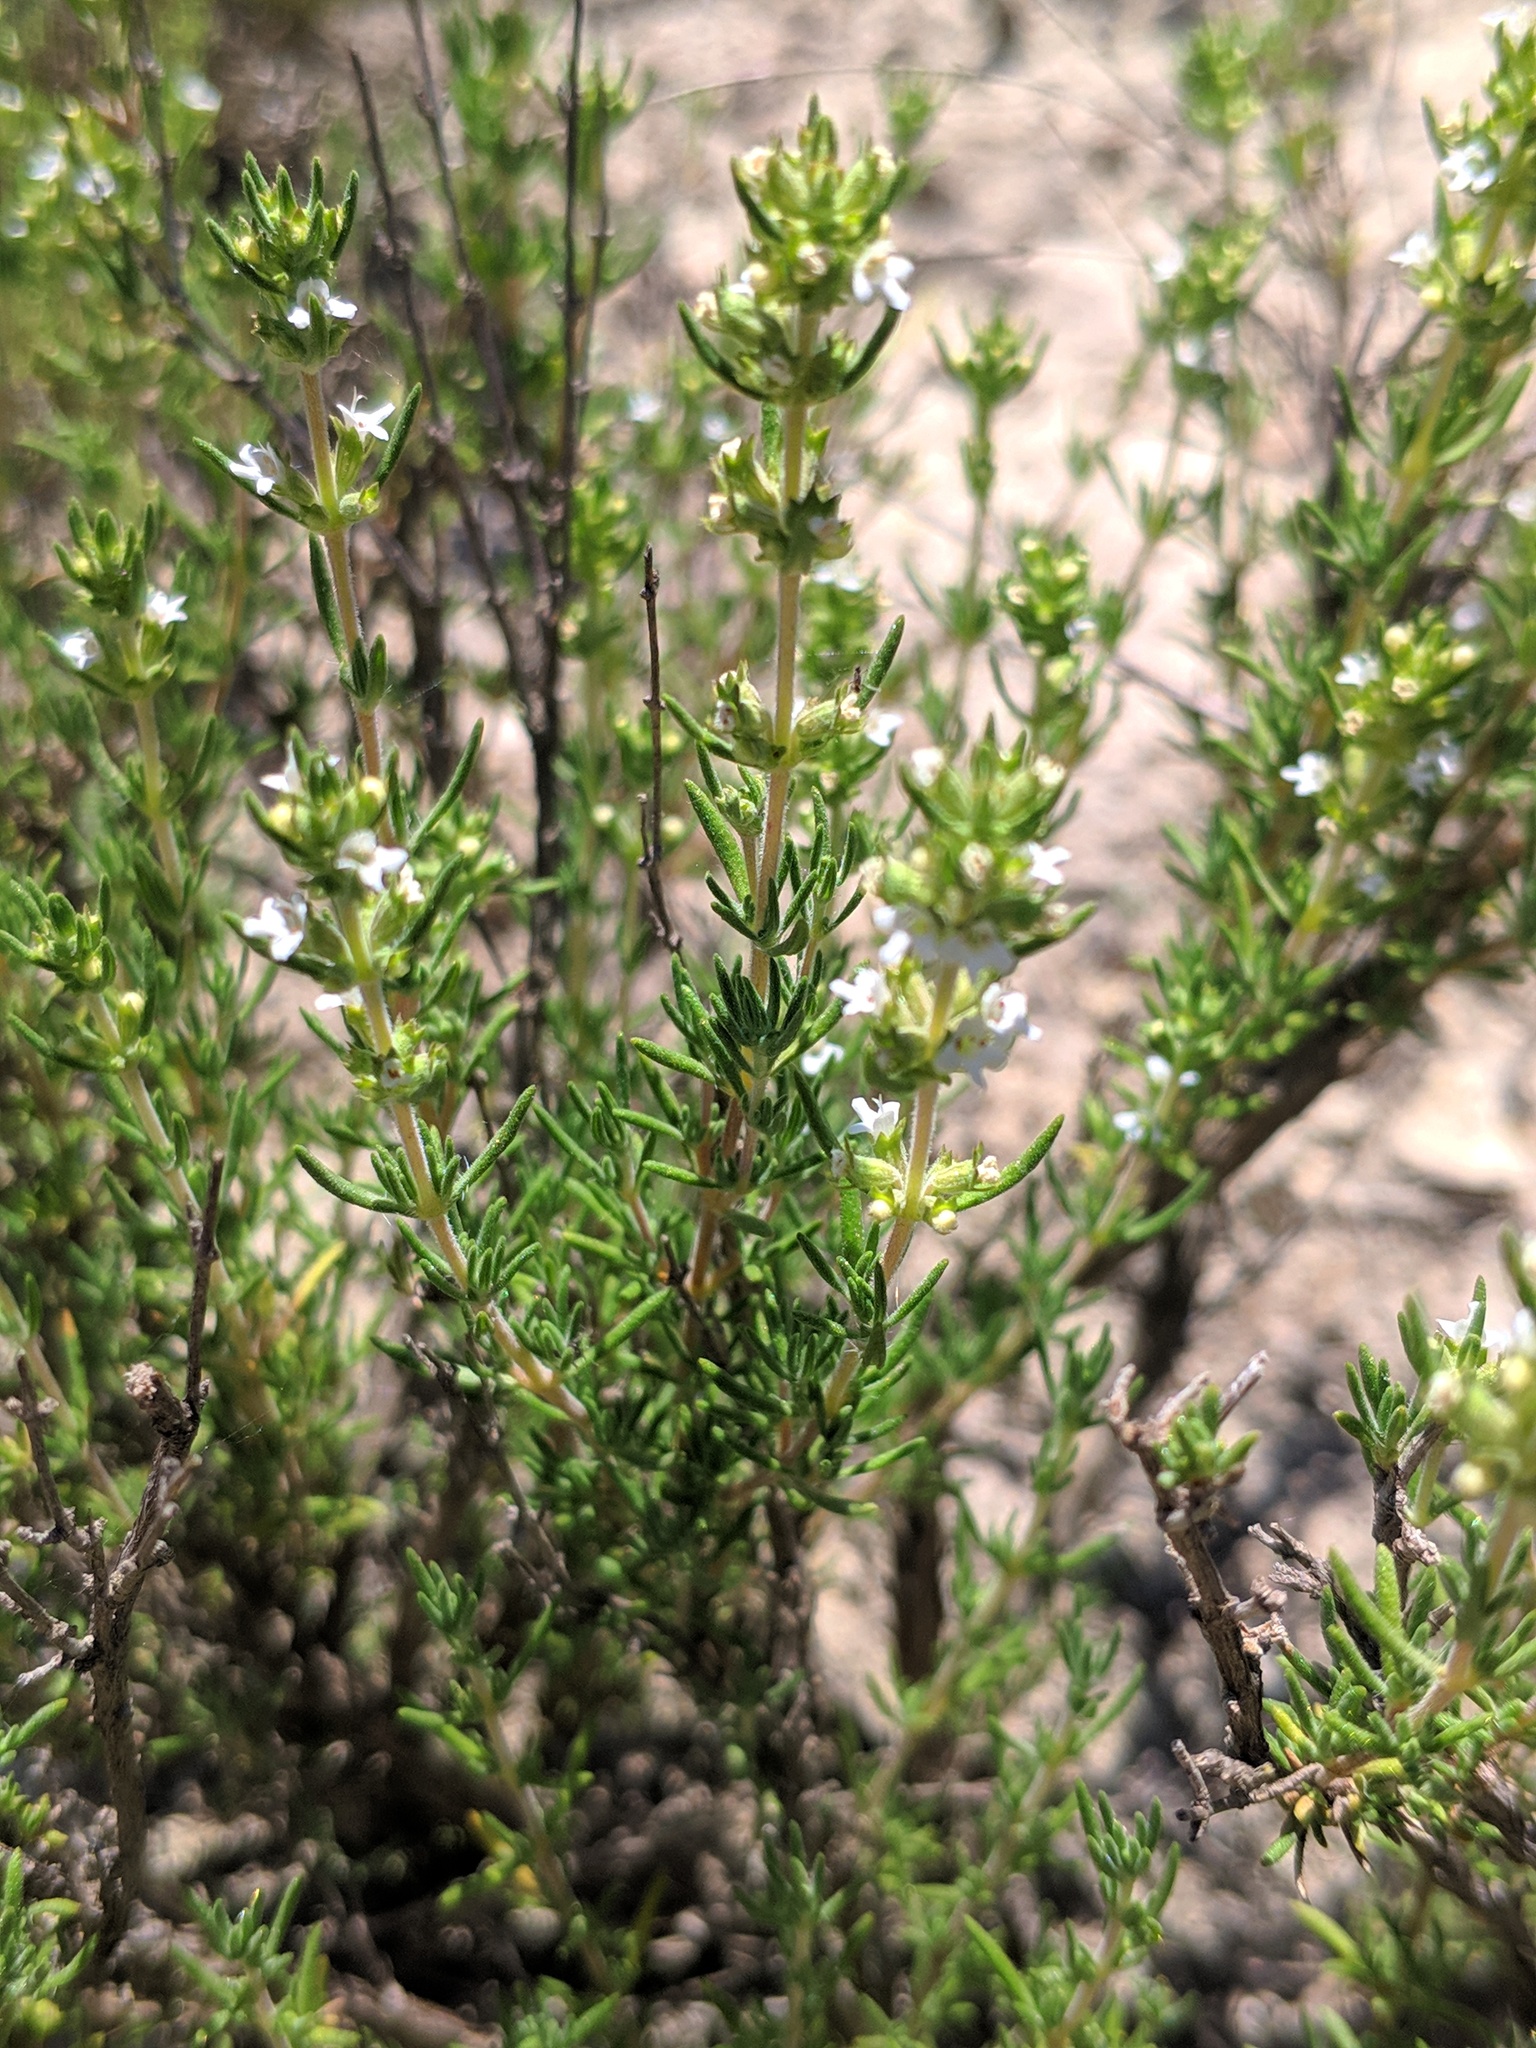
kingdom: Plantae
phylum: Tracheophyta
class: Magnoliopsida
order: Lamiales
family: Lamiaceae
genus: Thymus
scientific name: Thymus zygis
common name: White thyme
